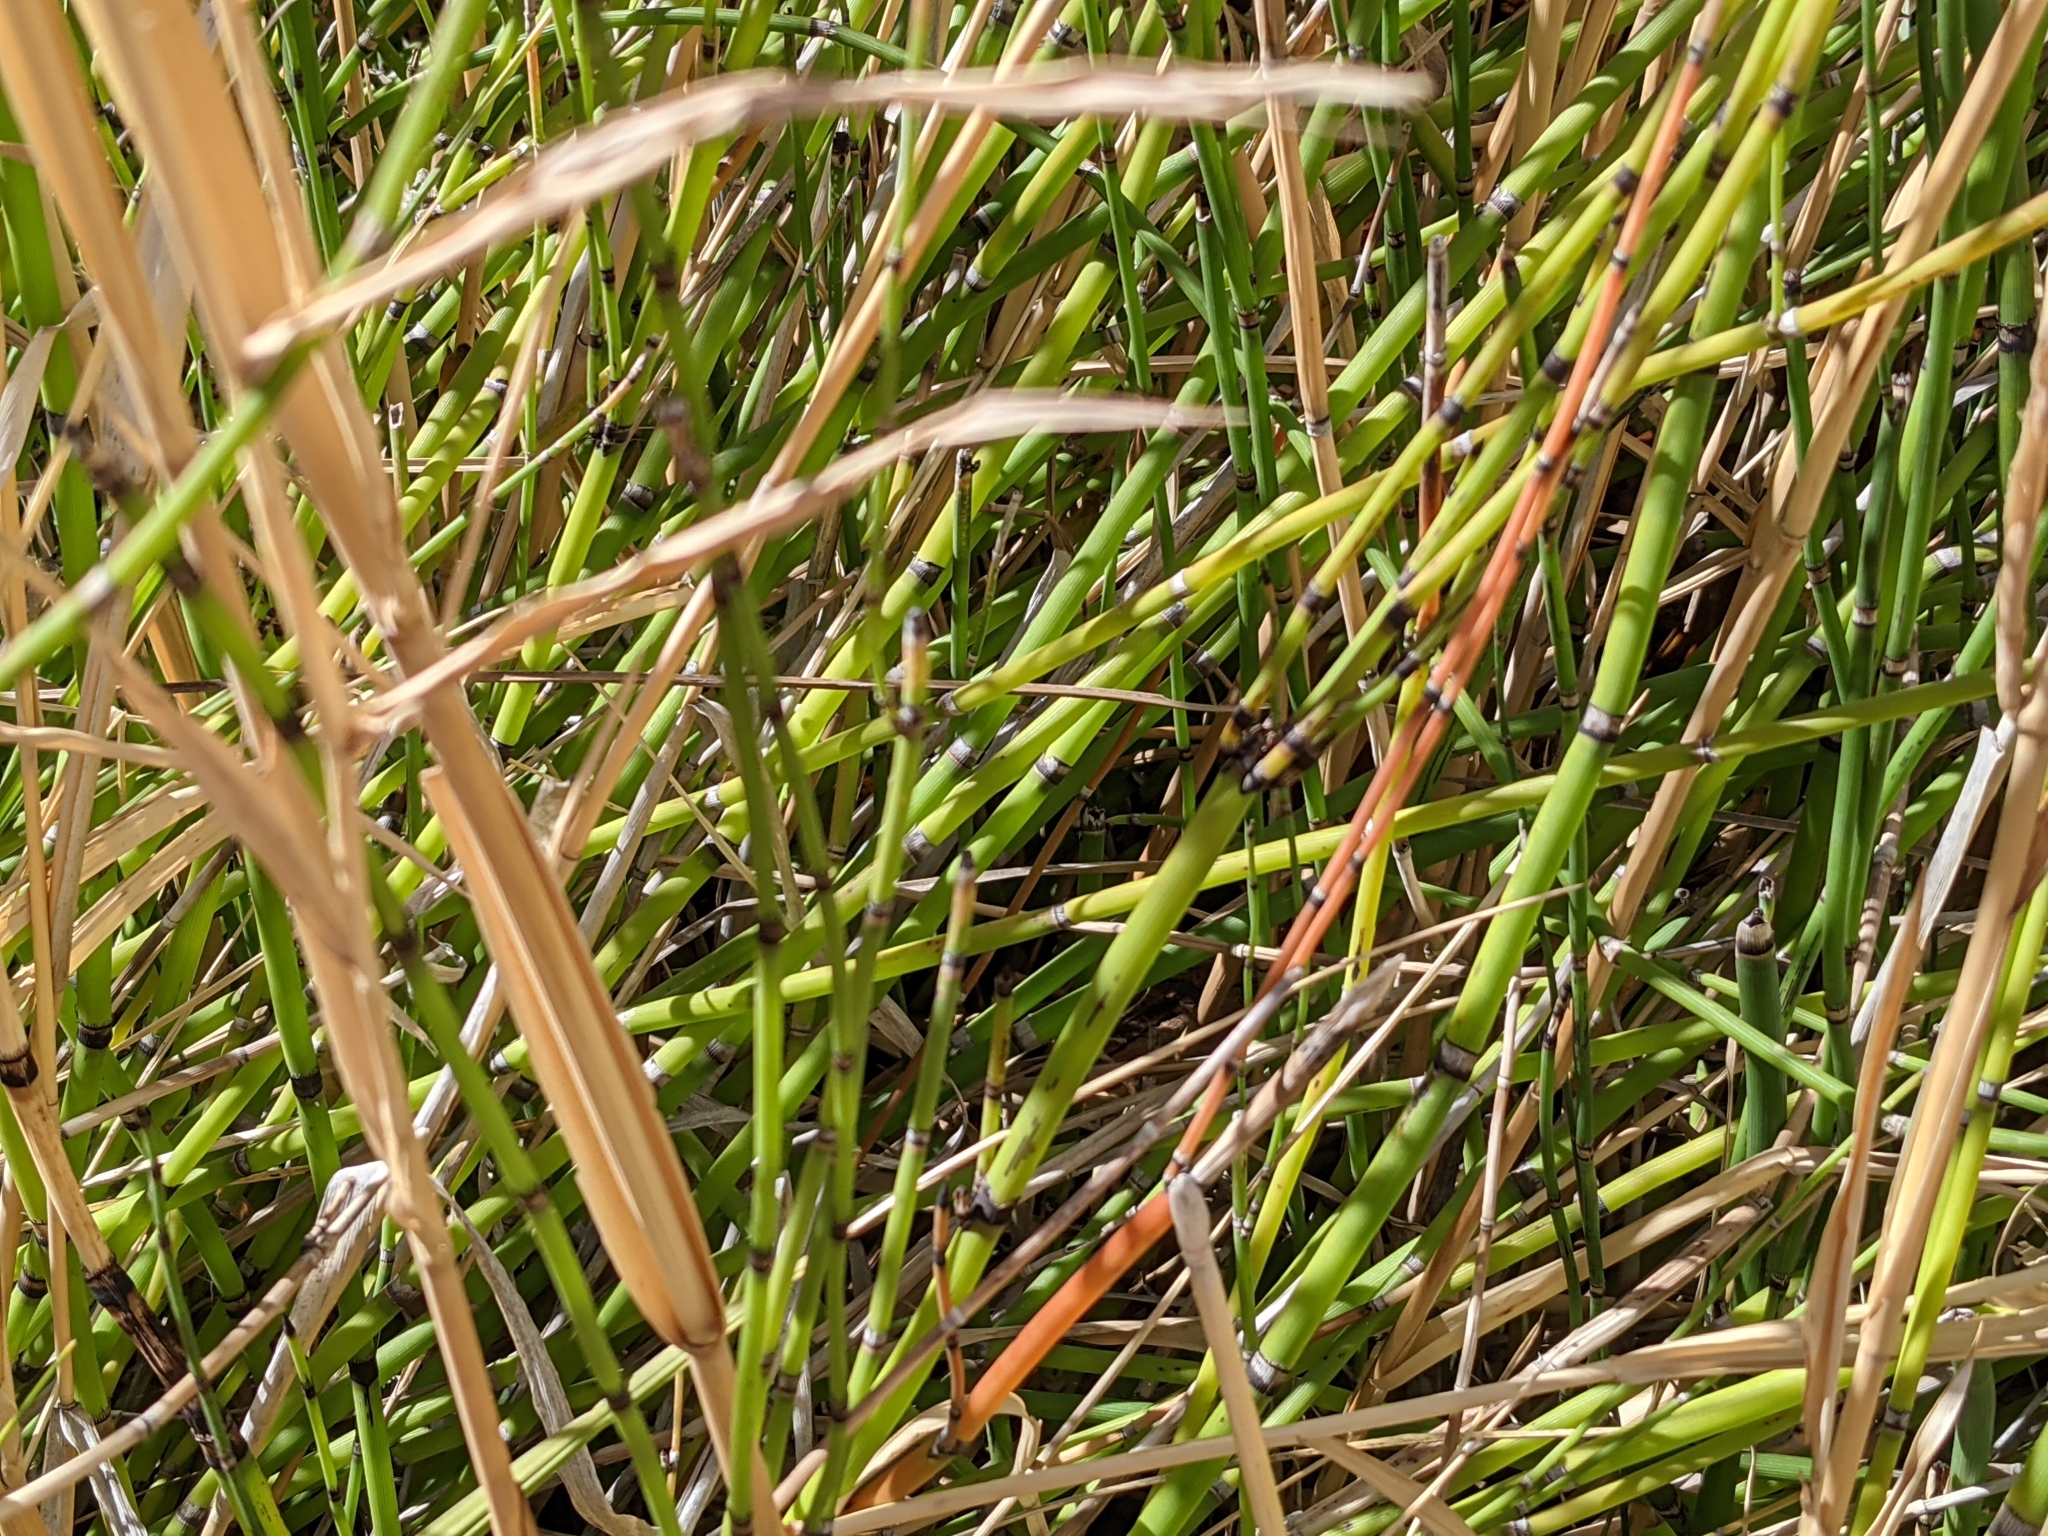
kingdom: Plantae
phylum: Tracheophyta
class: Polypodiopsida
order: Equisetales
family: Equisetaceae
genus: Equisetum
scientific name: Equisetum praealtum
